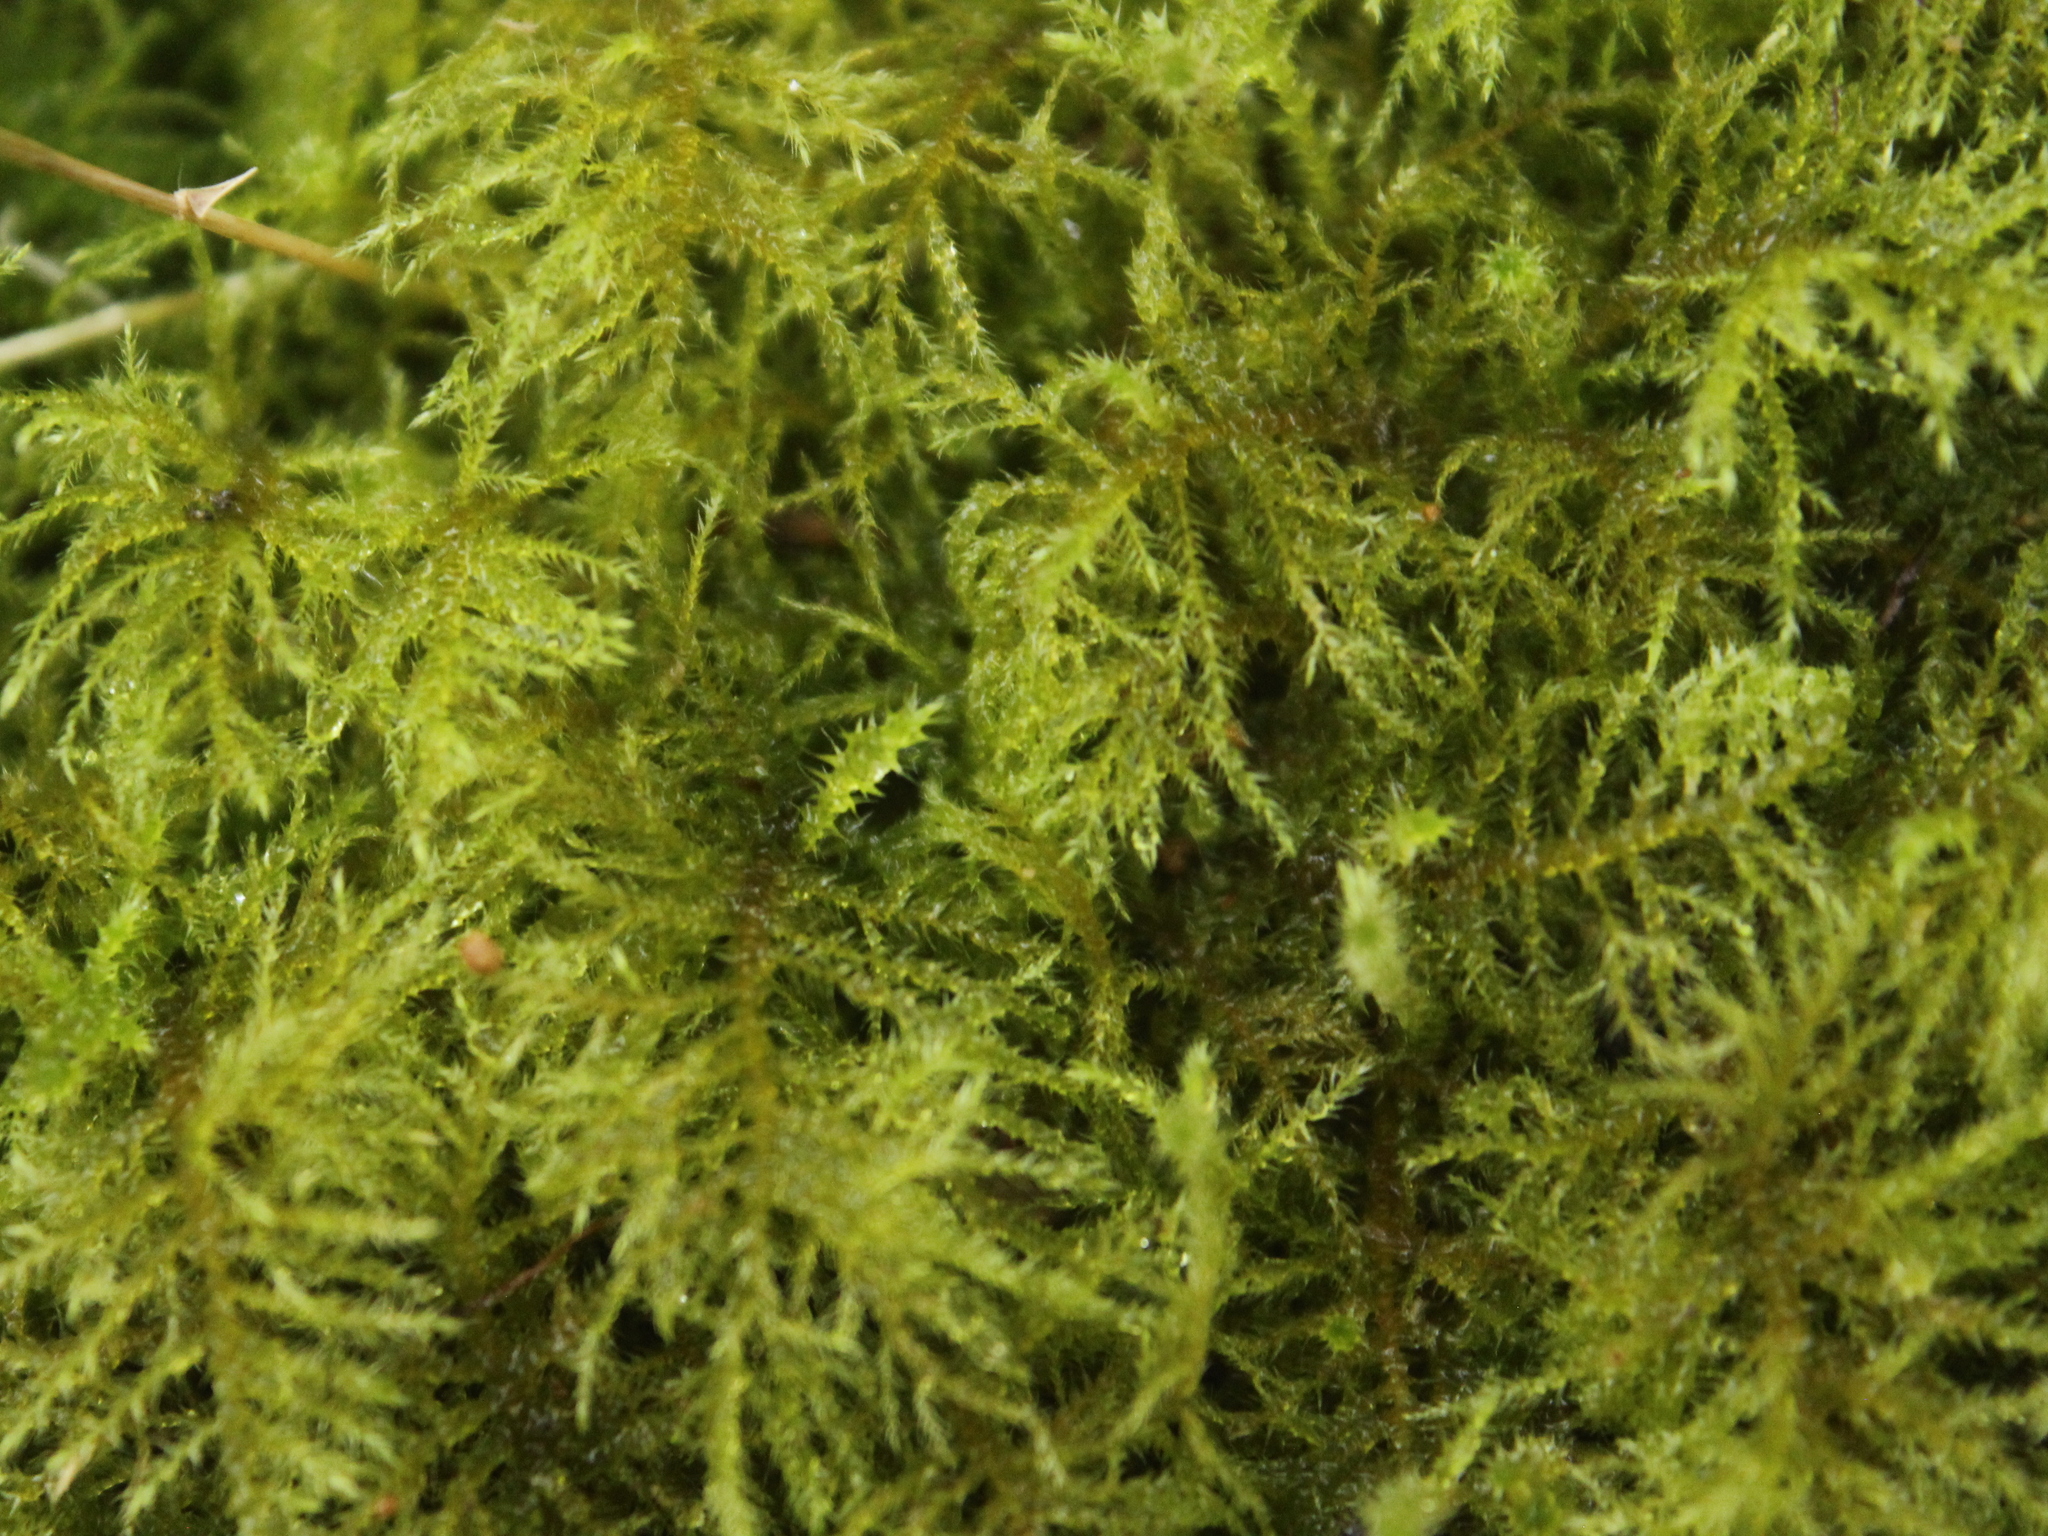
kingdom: Plantae
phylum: Bryophyta
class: Bryopsida
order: Hypnales
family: Brachytheciaceae
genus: Kindbergia
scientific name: Kindbergia praelonga
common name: Slender beaked moss
